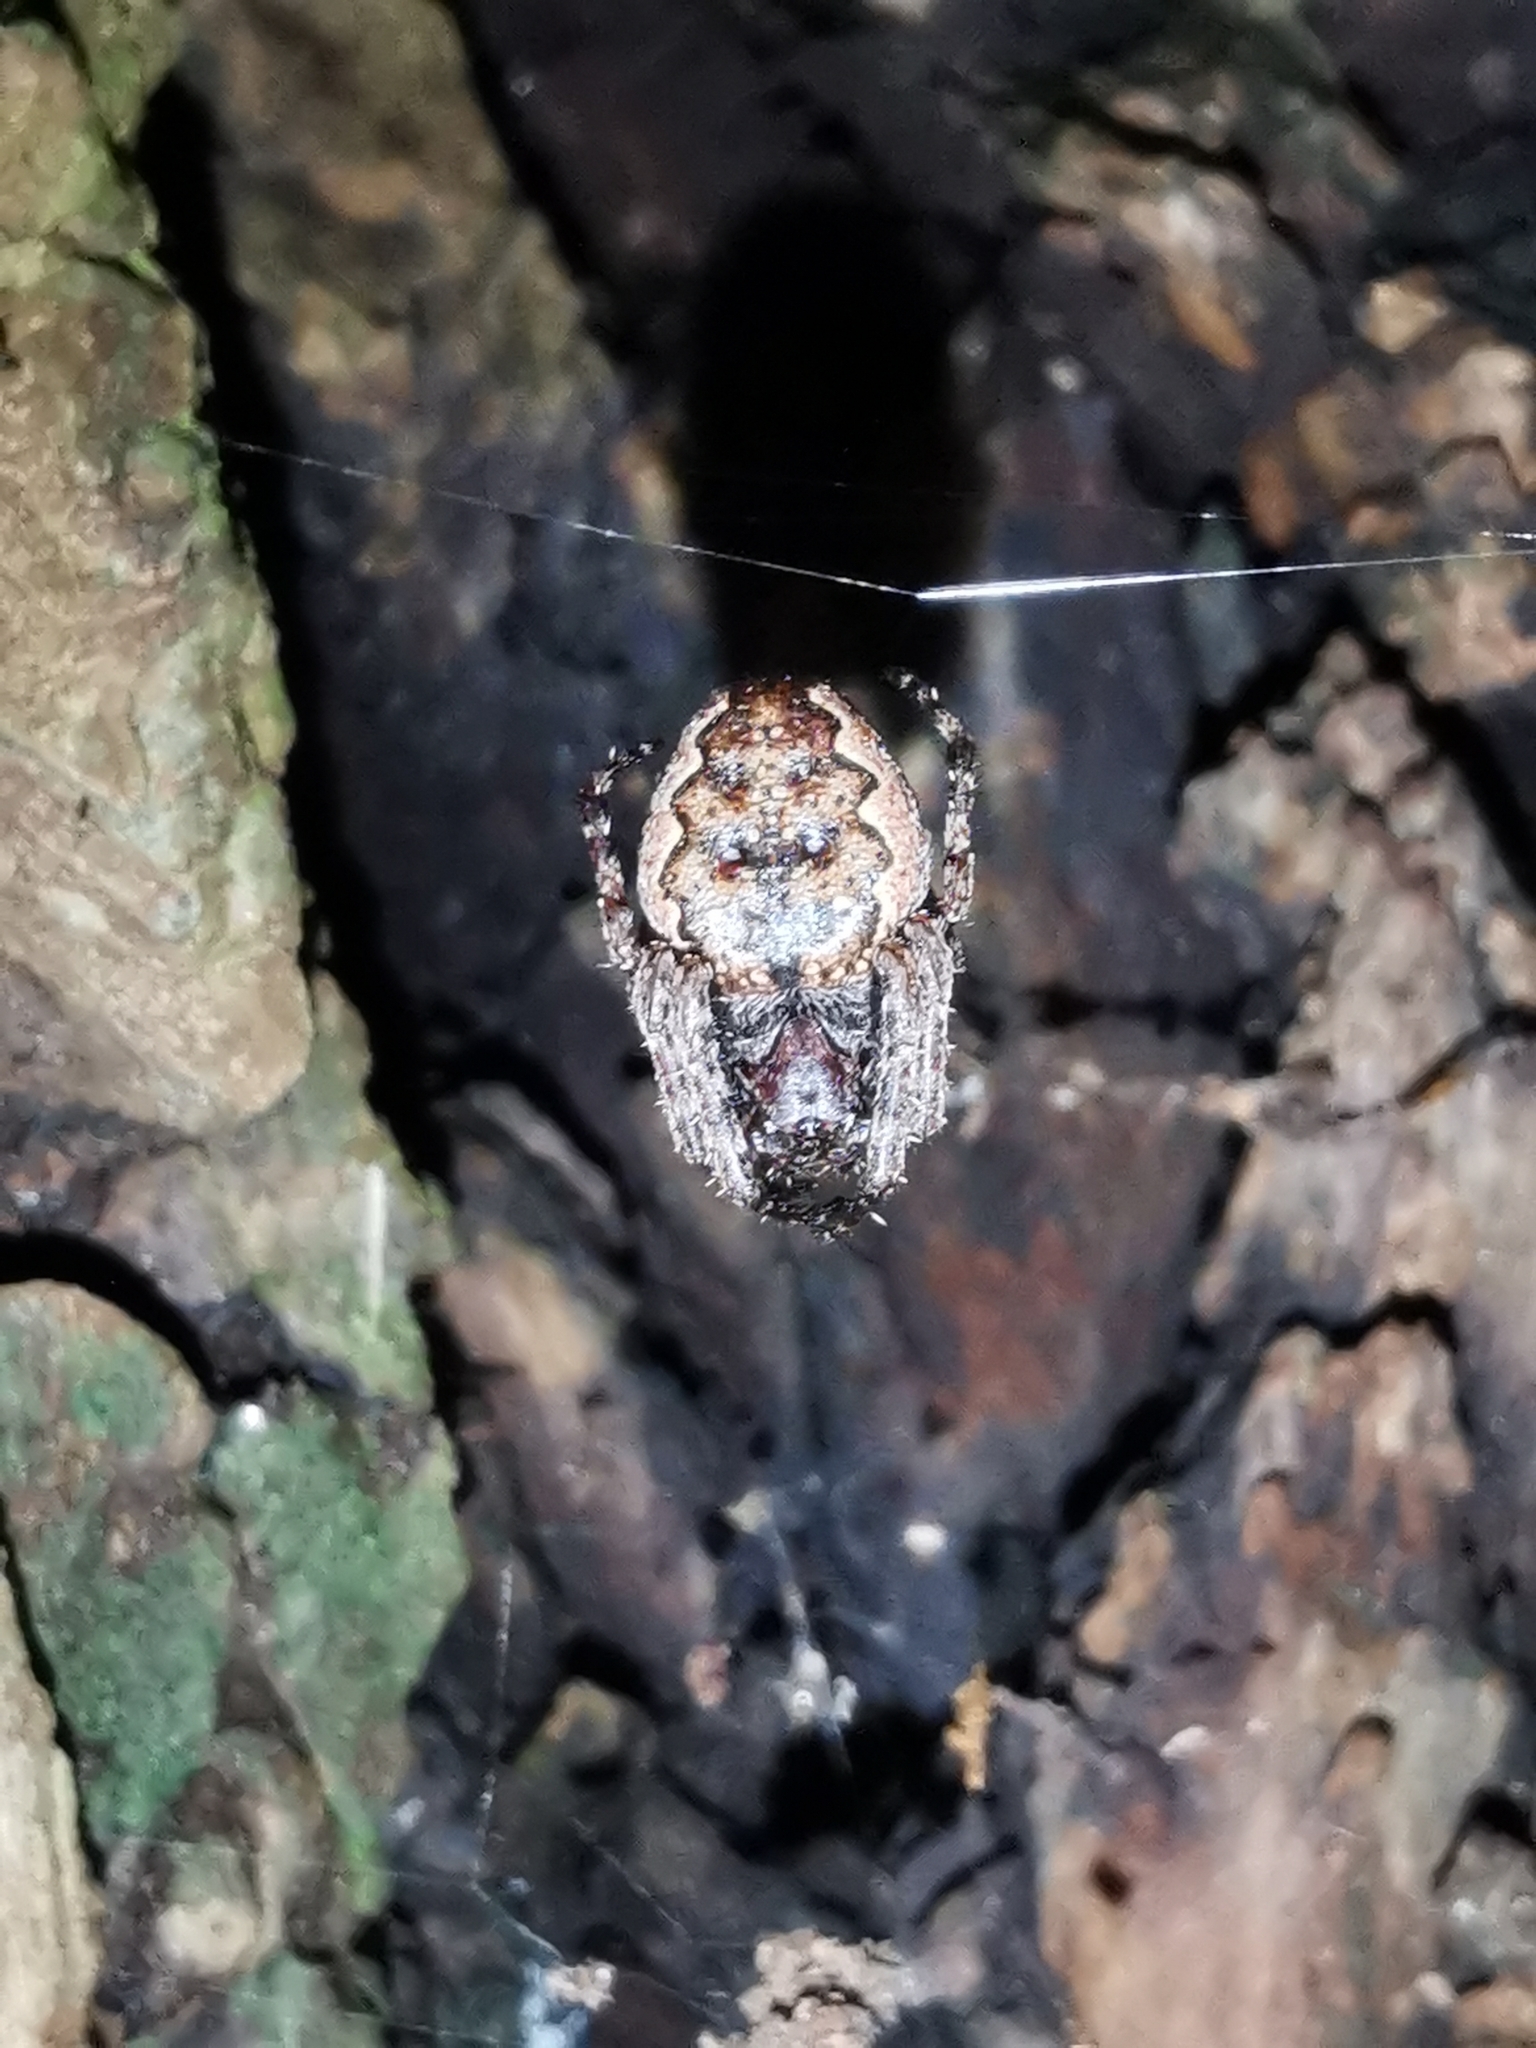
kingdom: Animalia
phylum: Arthropoda
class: Arachnida
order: Araneae
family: Araneidae
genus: Nuctenea
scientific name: Nuctenea umbratica
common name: Toad spider
